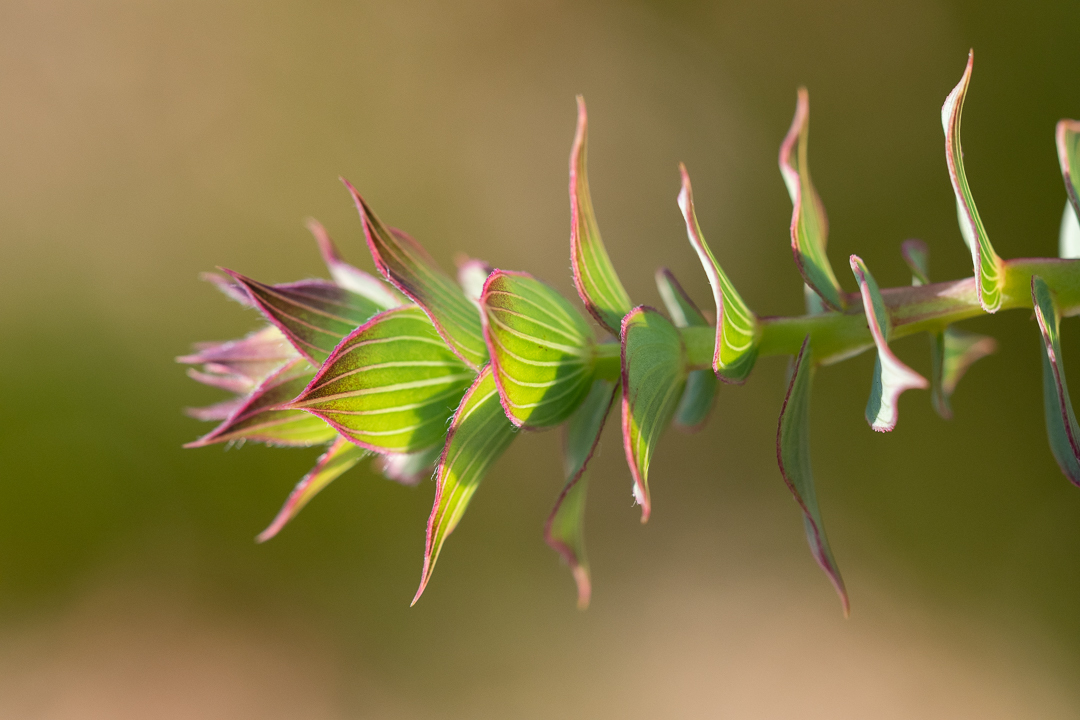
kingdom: Plantae
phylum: Tracheophyta
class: Magnoliopsida
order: Fabales
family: Fabaceae
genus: Aspalathus
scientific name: Aspalathus crenata
